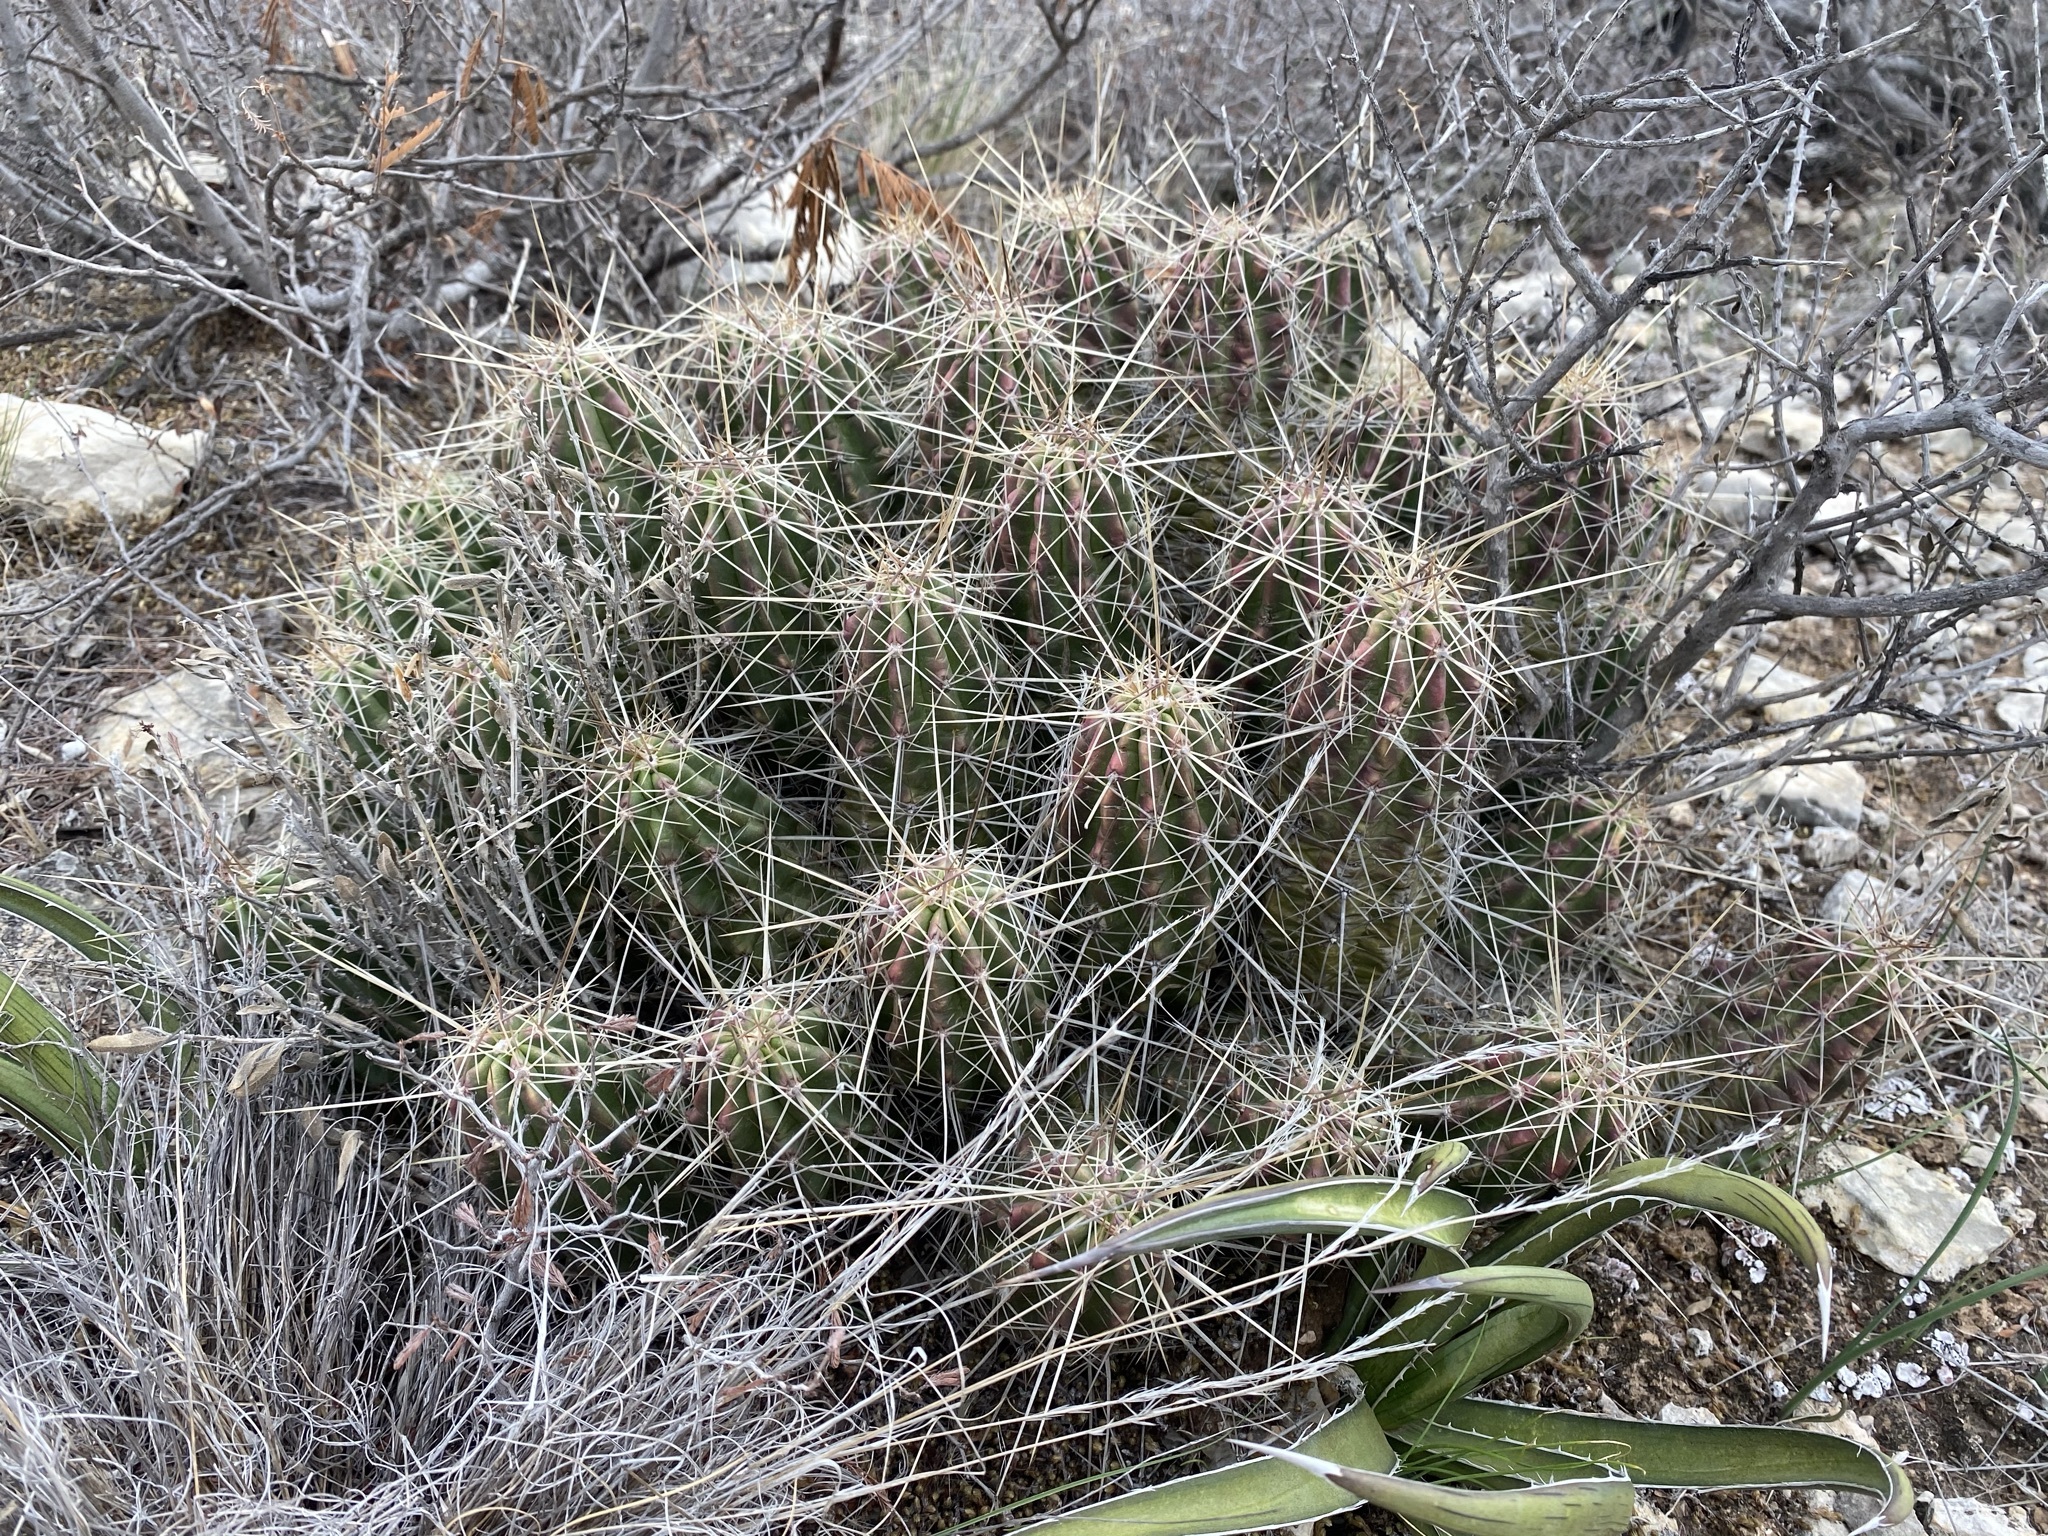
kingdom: Plantae
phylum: Tracheophyta
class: Magnoliopsida
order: Caryophyllales
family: Cactaceae
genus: Echinocereus
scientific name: Echinocereus enneacanthus
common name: Pitaya
